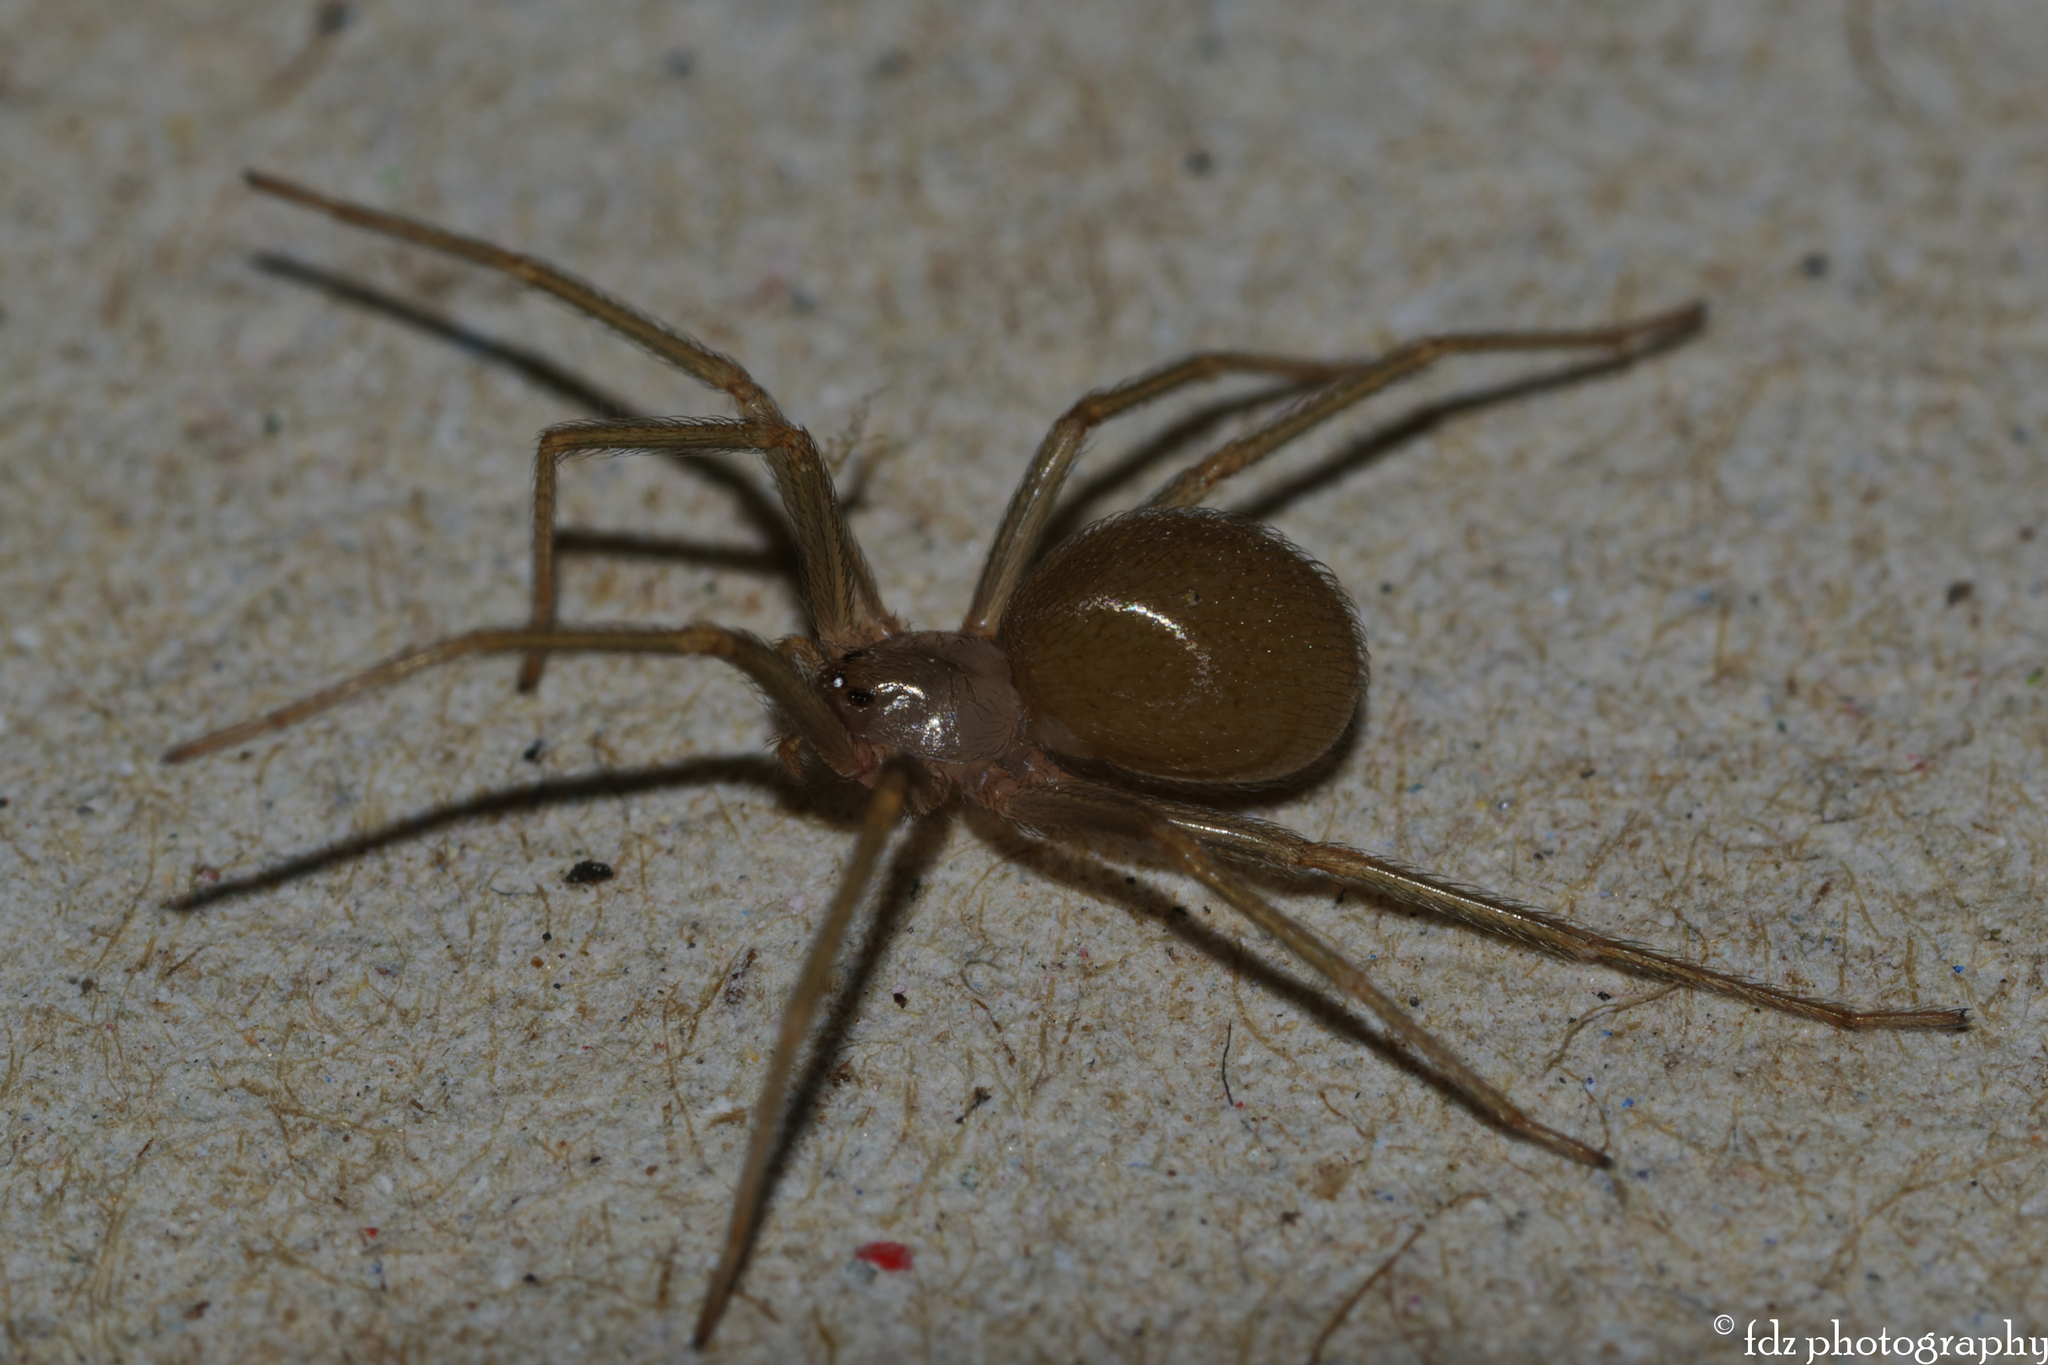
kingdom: Animalia
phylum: Arthropoda
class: Arachnida
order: Araneae
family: Sicariidae
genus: Loxosceles
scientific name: Loxosceles rufescens
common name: Mediterranean recluse spider
